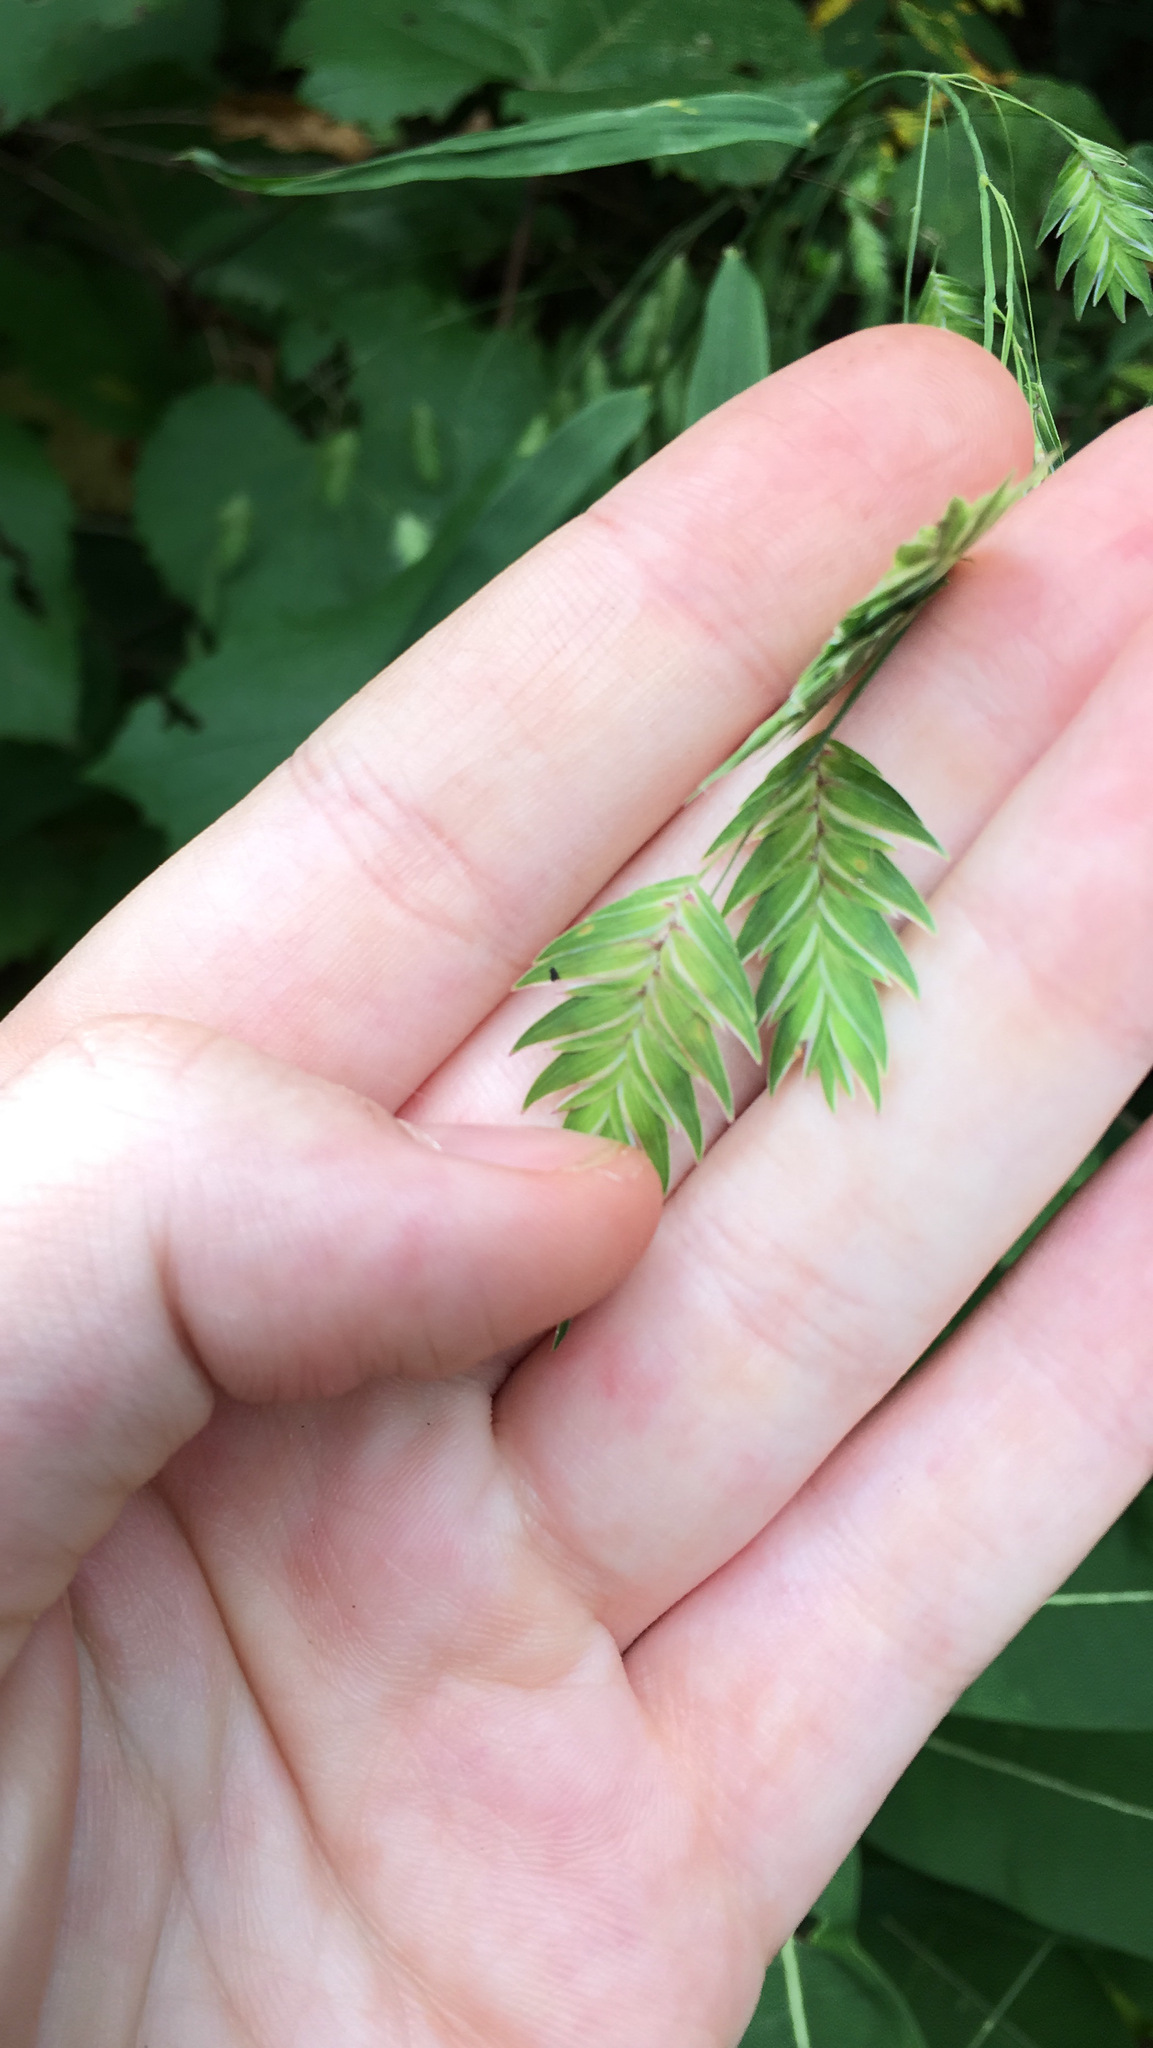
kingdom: Plantae
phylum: Tracheophyta
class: Liliopsida
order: Poales
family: Poaceae
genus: Chasmanthium
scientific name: Chasmanthium latifolium
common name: Broad-leaved chasmanthium
